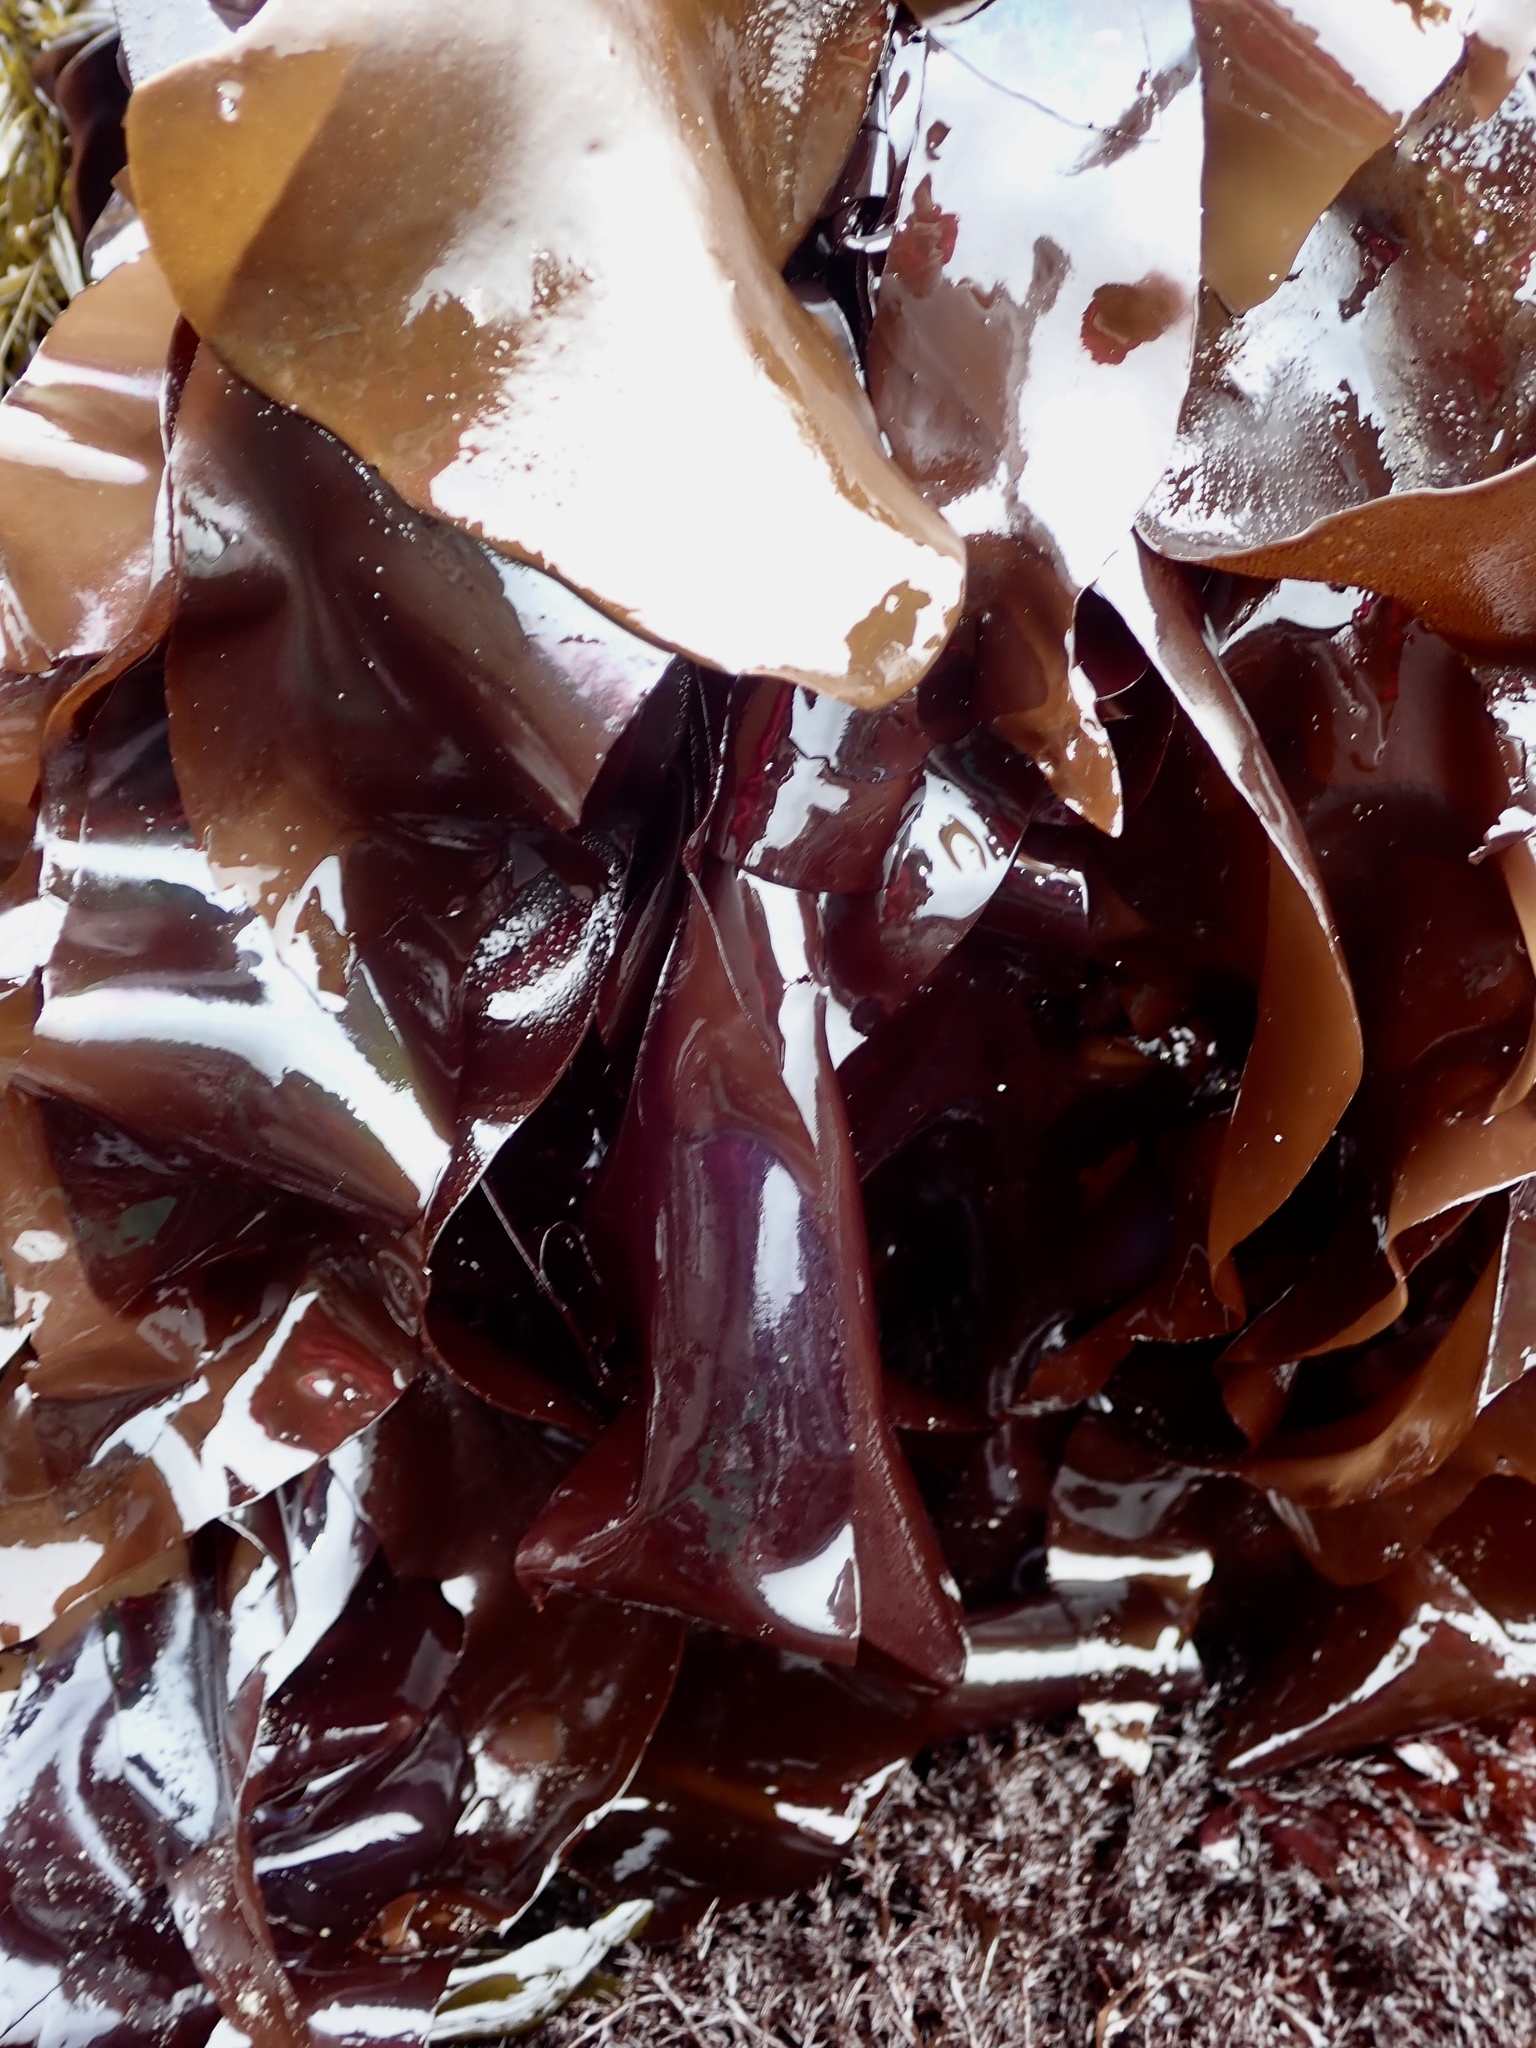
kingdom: Plantae
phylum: Rhodophyta
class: Florideophyceae
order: Gigartinales
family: Gigartinaceae
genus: Mazzaella
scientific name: Mazzaella splendens
